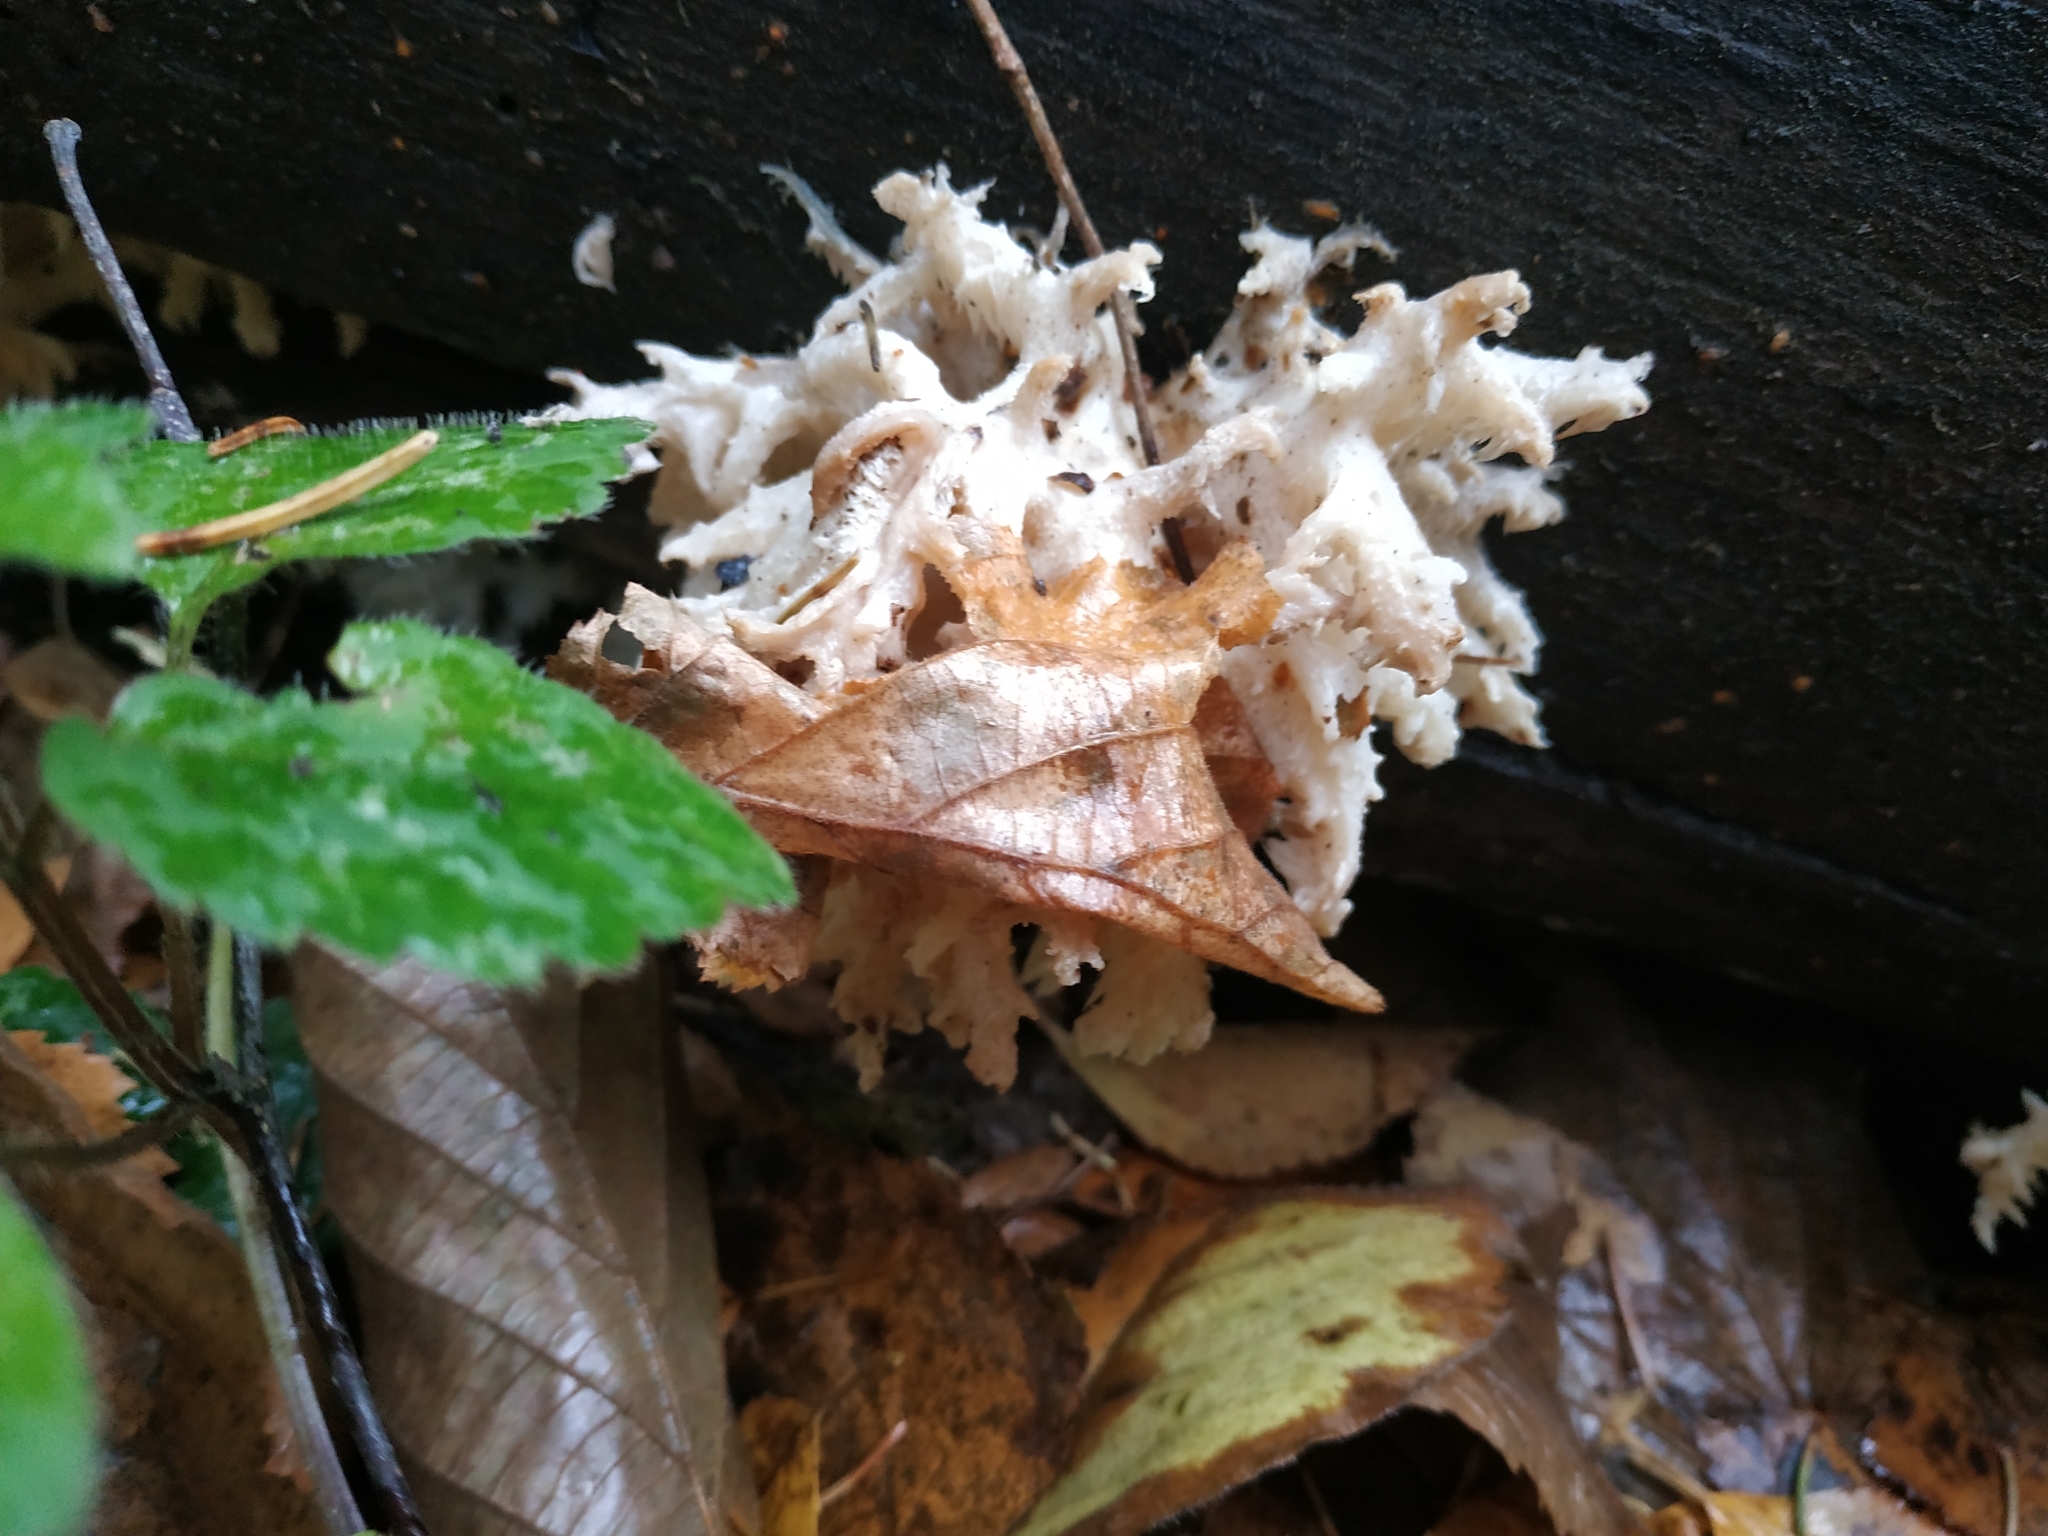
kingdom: Fungi
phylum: Basidiomycota
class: Agaricomycetes
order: Russulales
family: Hericiaceae
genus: Hericium
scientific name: Hericium coralloides
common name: Coral tooth
